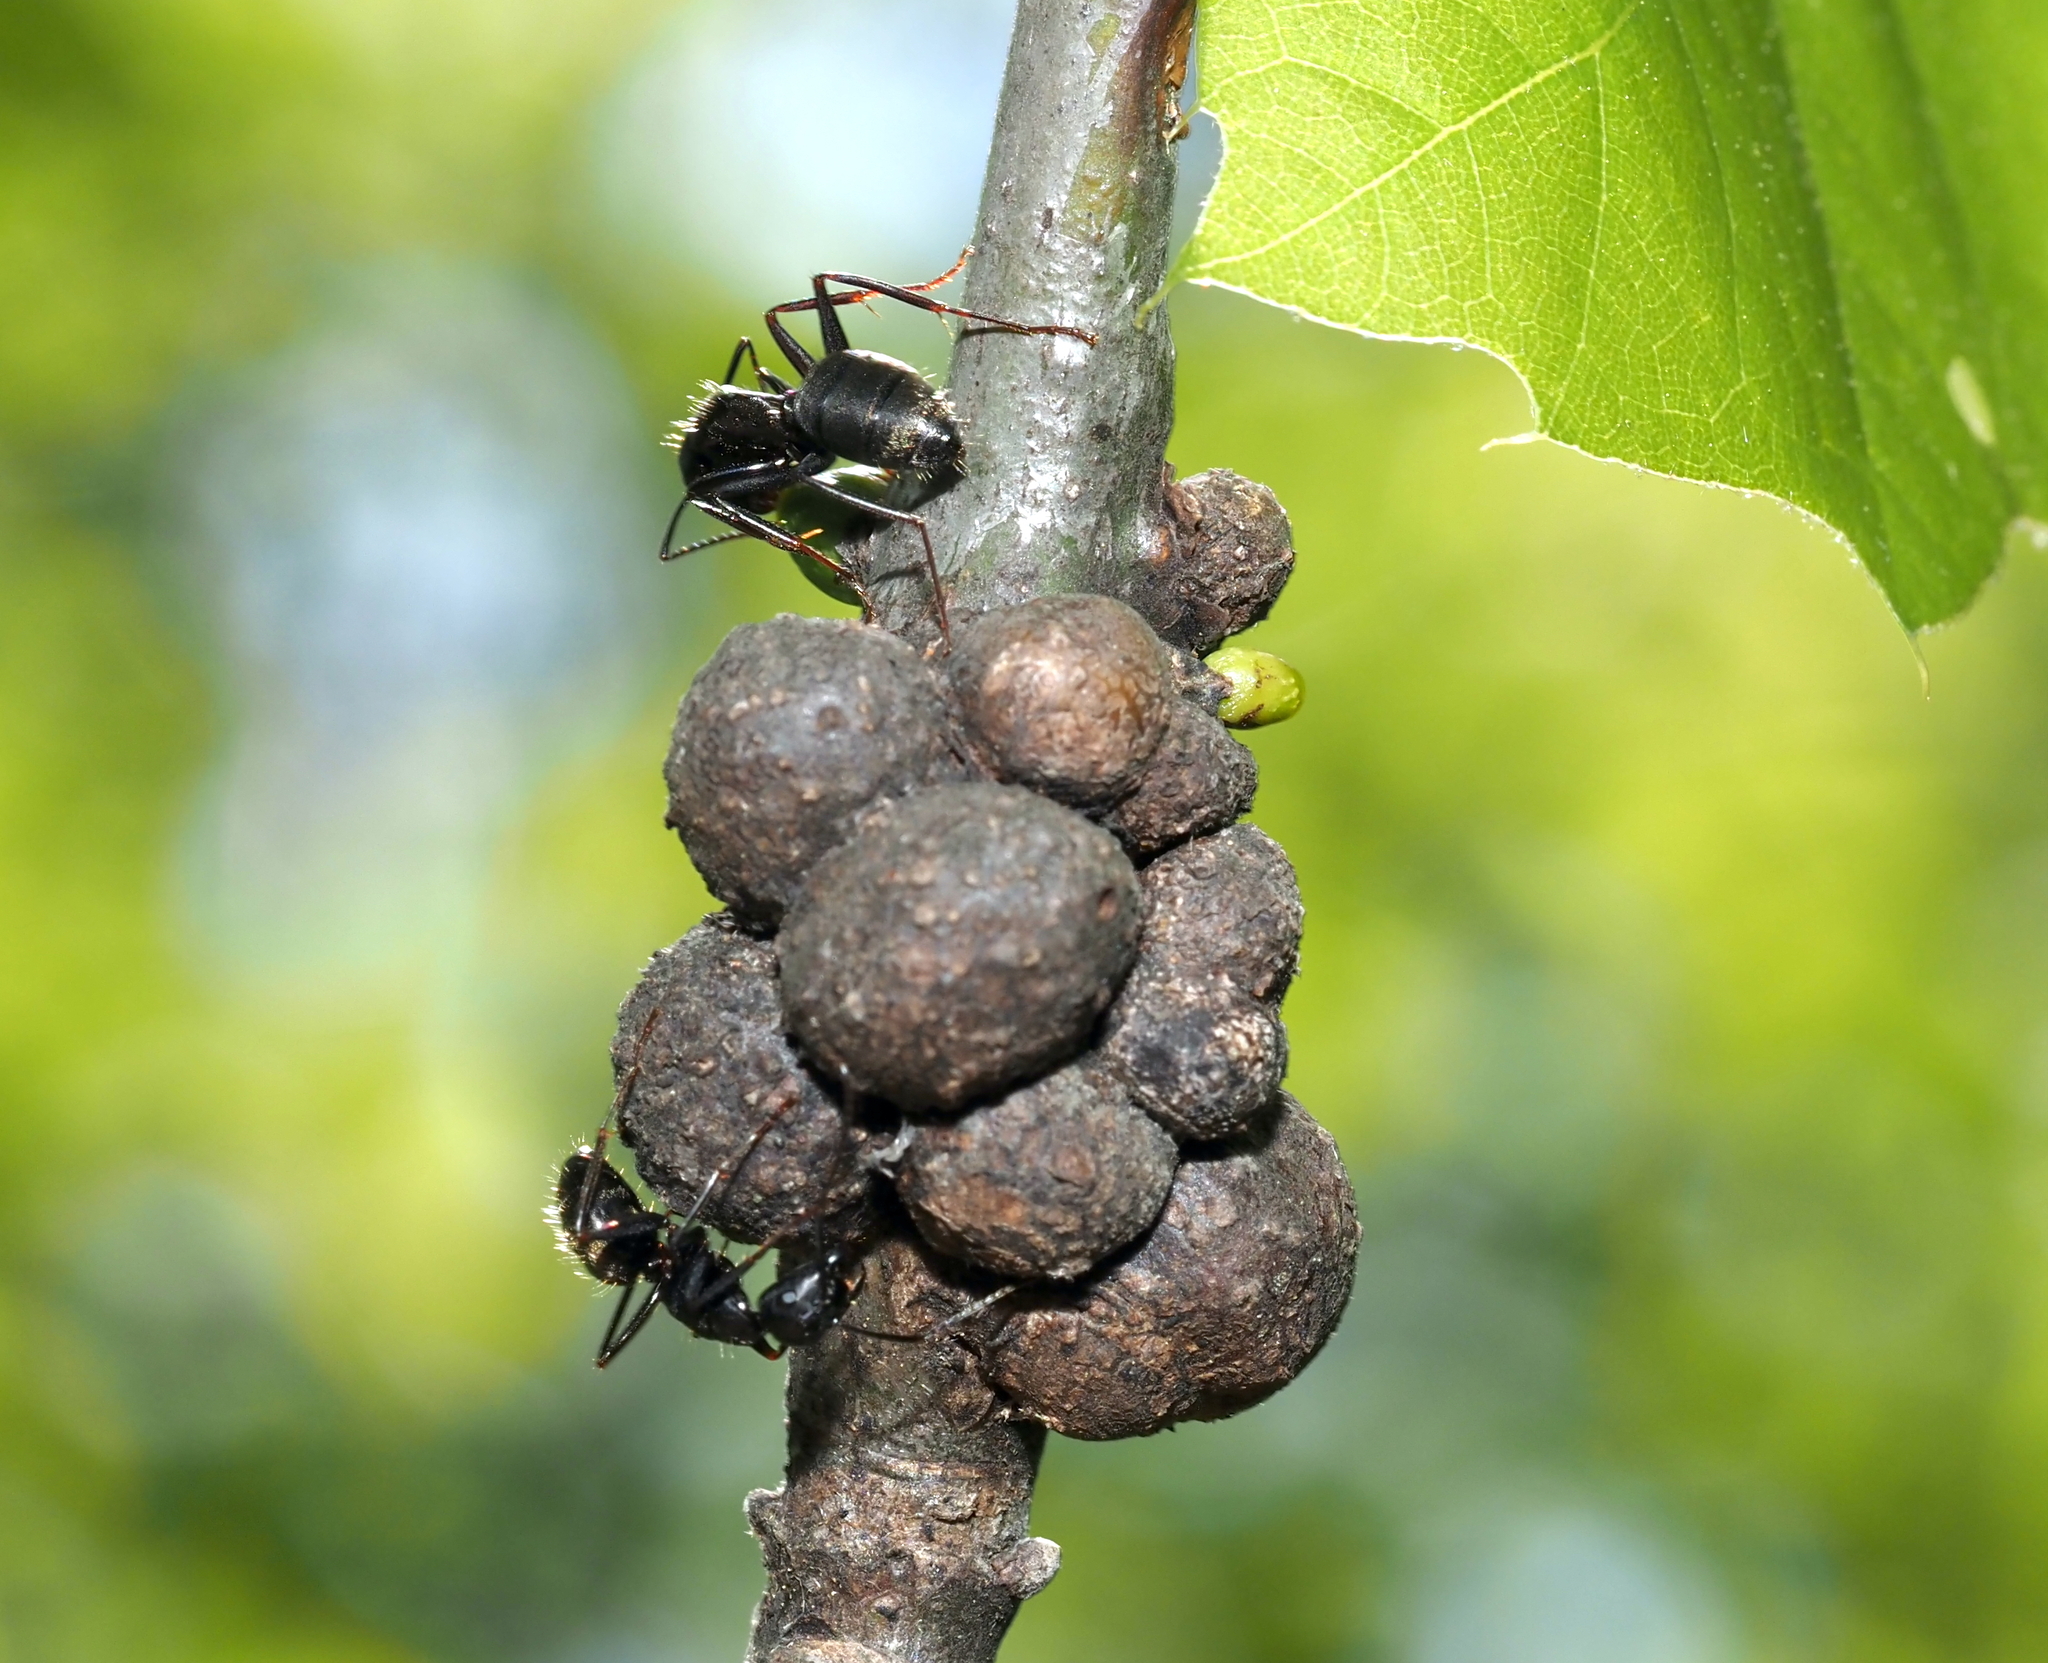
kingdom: Animalia
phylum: Arthropoda
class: Insecta
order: Hymenoptera
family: Formicidae
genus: Camponotus
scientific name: Camponotus pennsylvanicus
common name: Black carpenter ant
